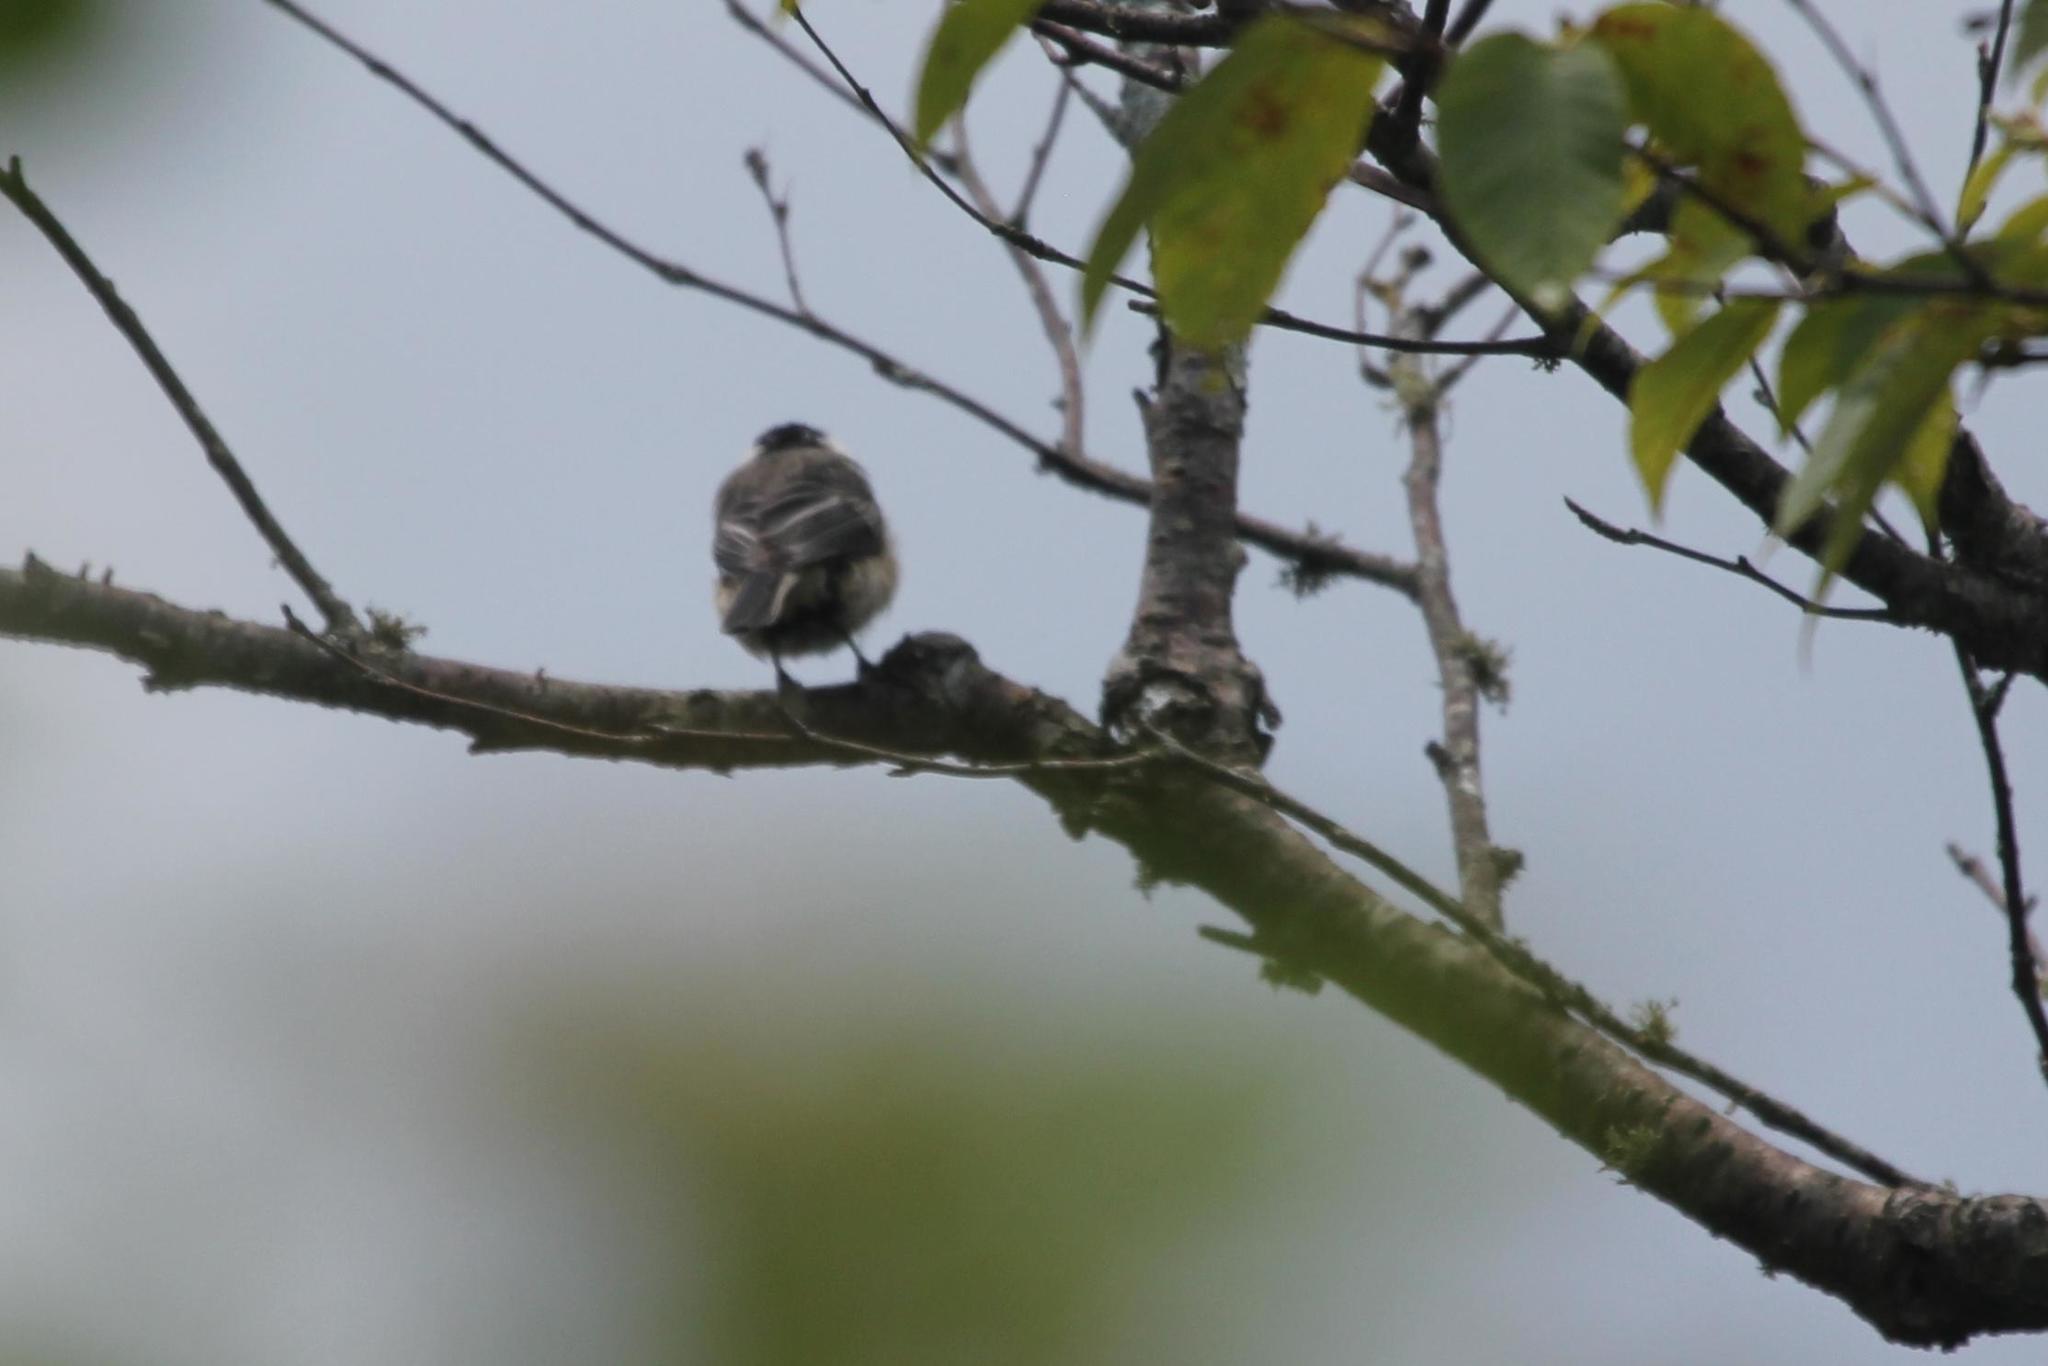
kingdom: Animalia
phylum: Chordata
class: Aves
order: Passeriformes
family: Paridae
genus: Poecile
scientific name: Poecile atricapillus
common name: Black-capped chickadee
